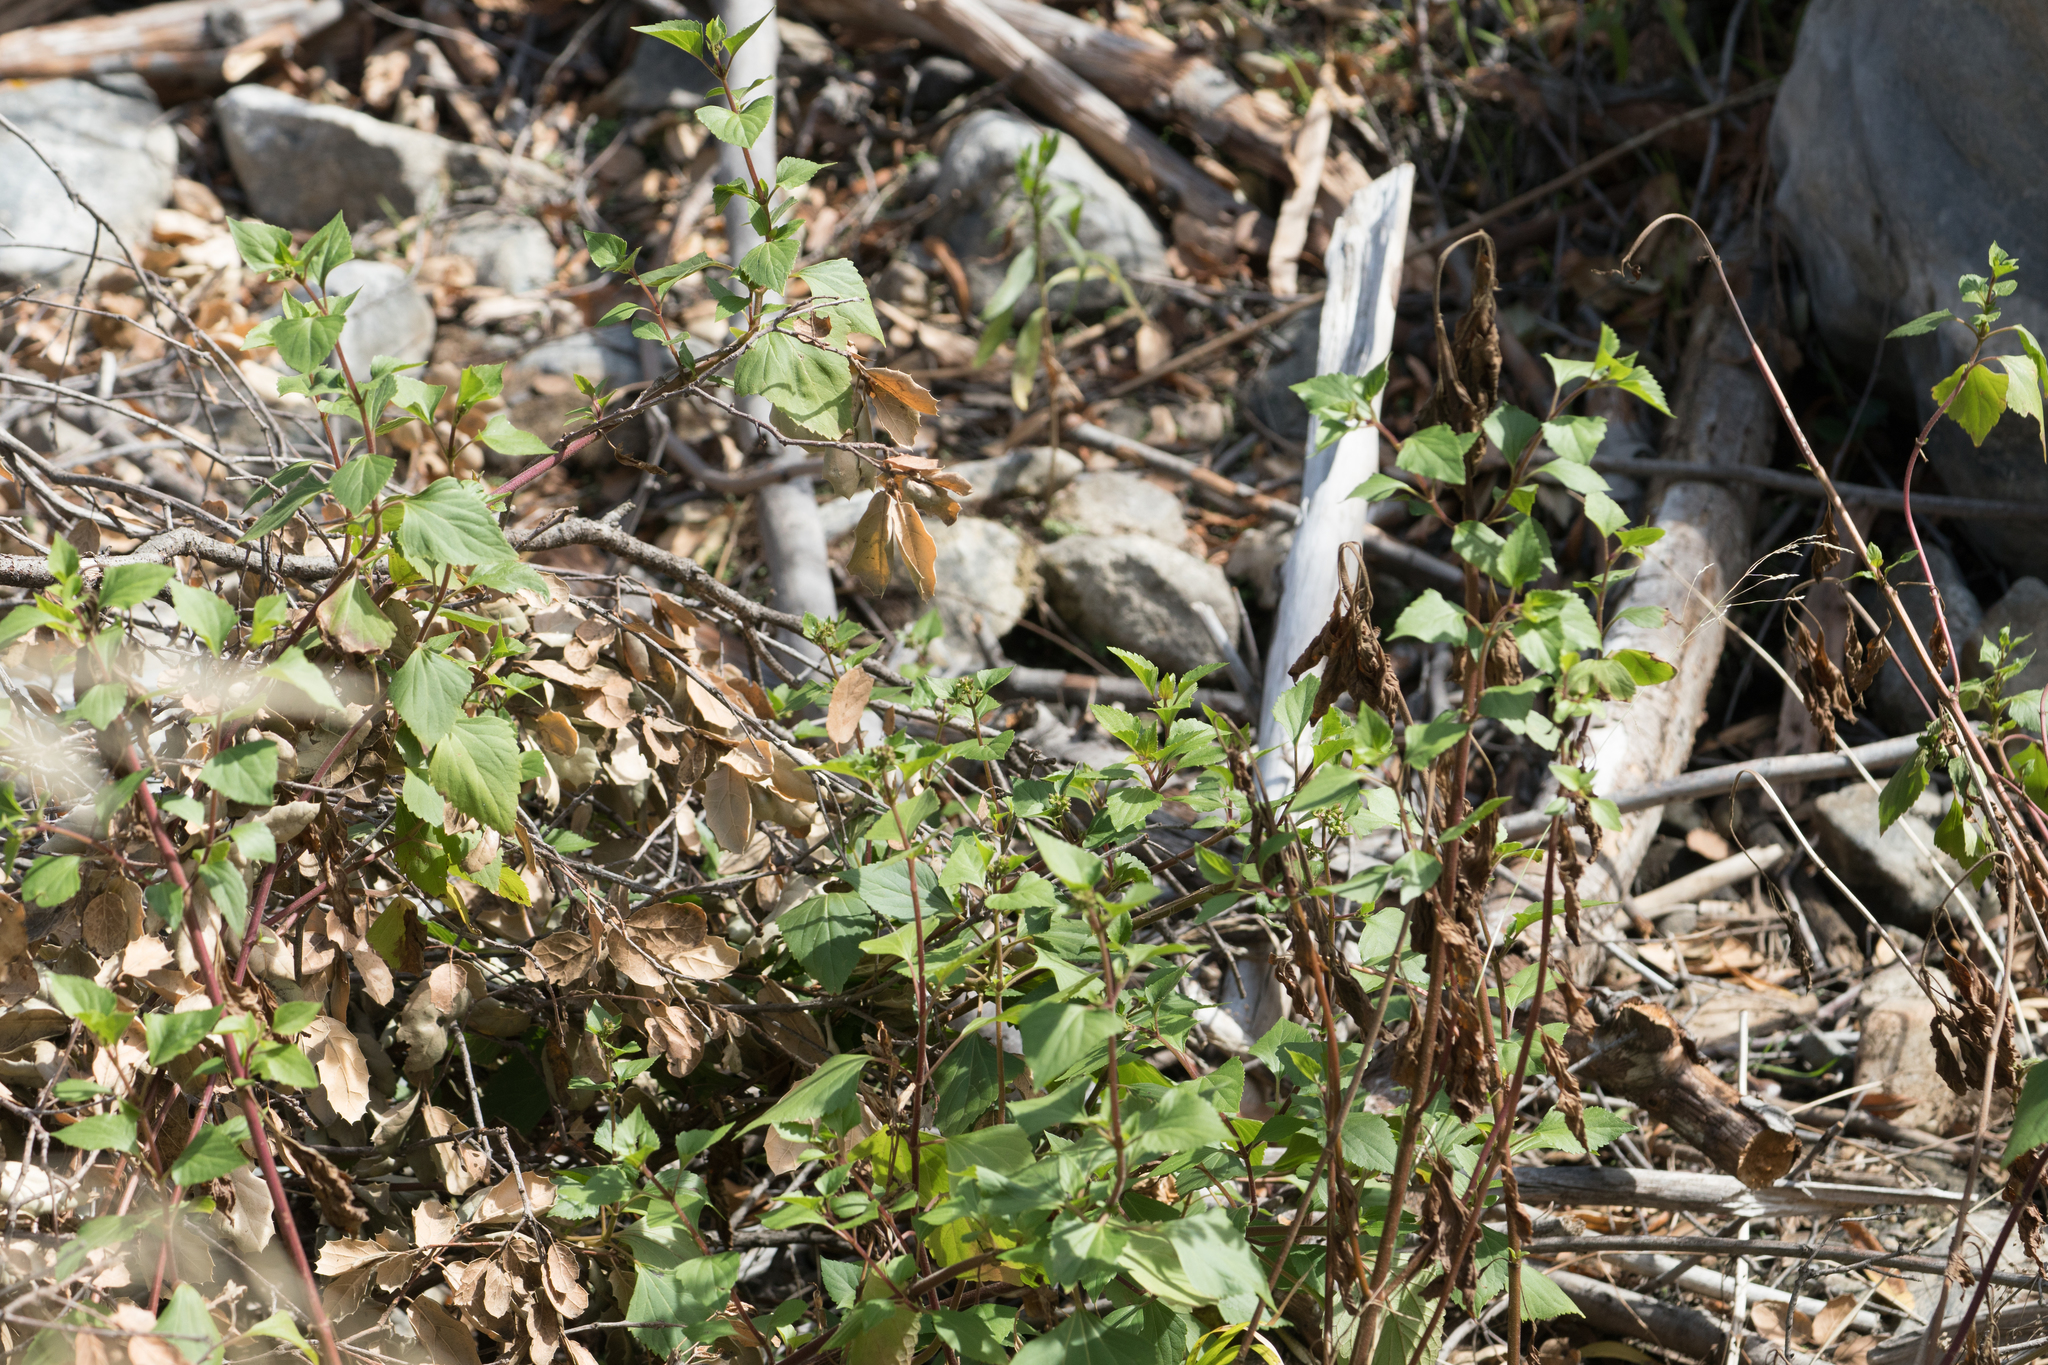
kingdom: Plantae
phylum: Tracheophyta
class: Magnoliopsida
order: Asterales
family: Asteraceae
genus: Ageratina
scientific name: Ageratina adenophora
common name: Sticky snakeroot
